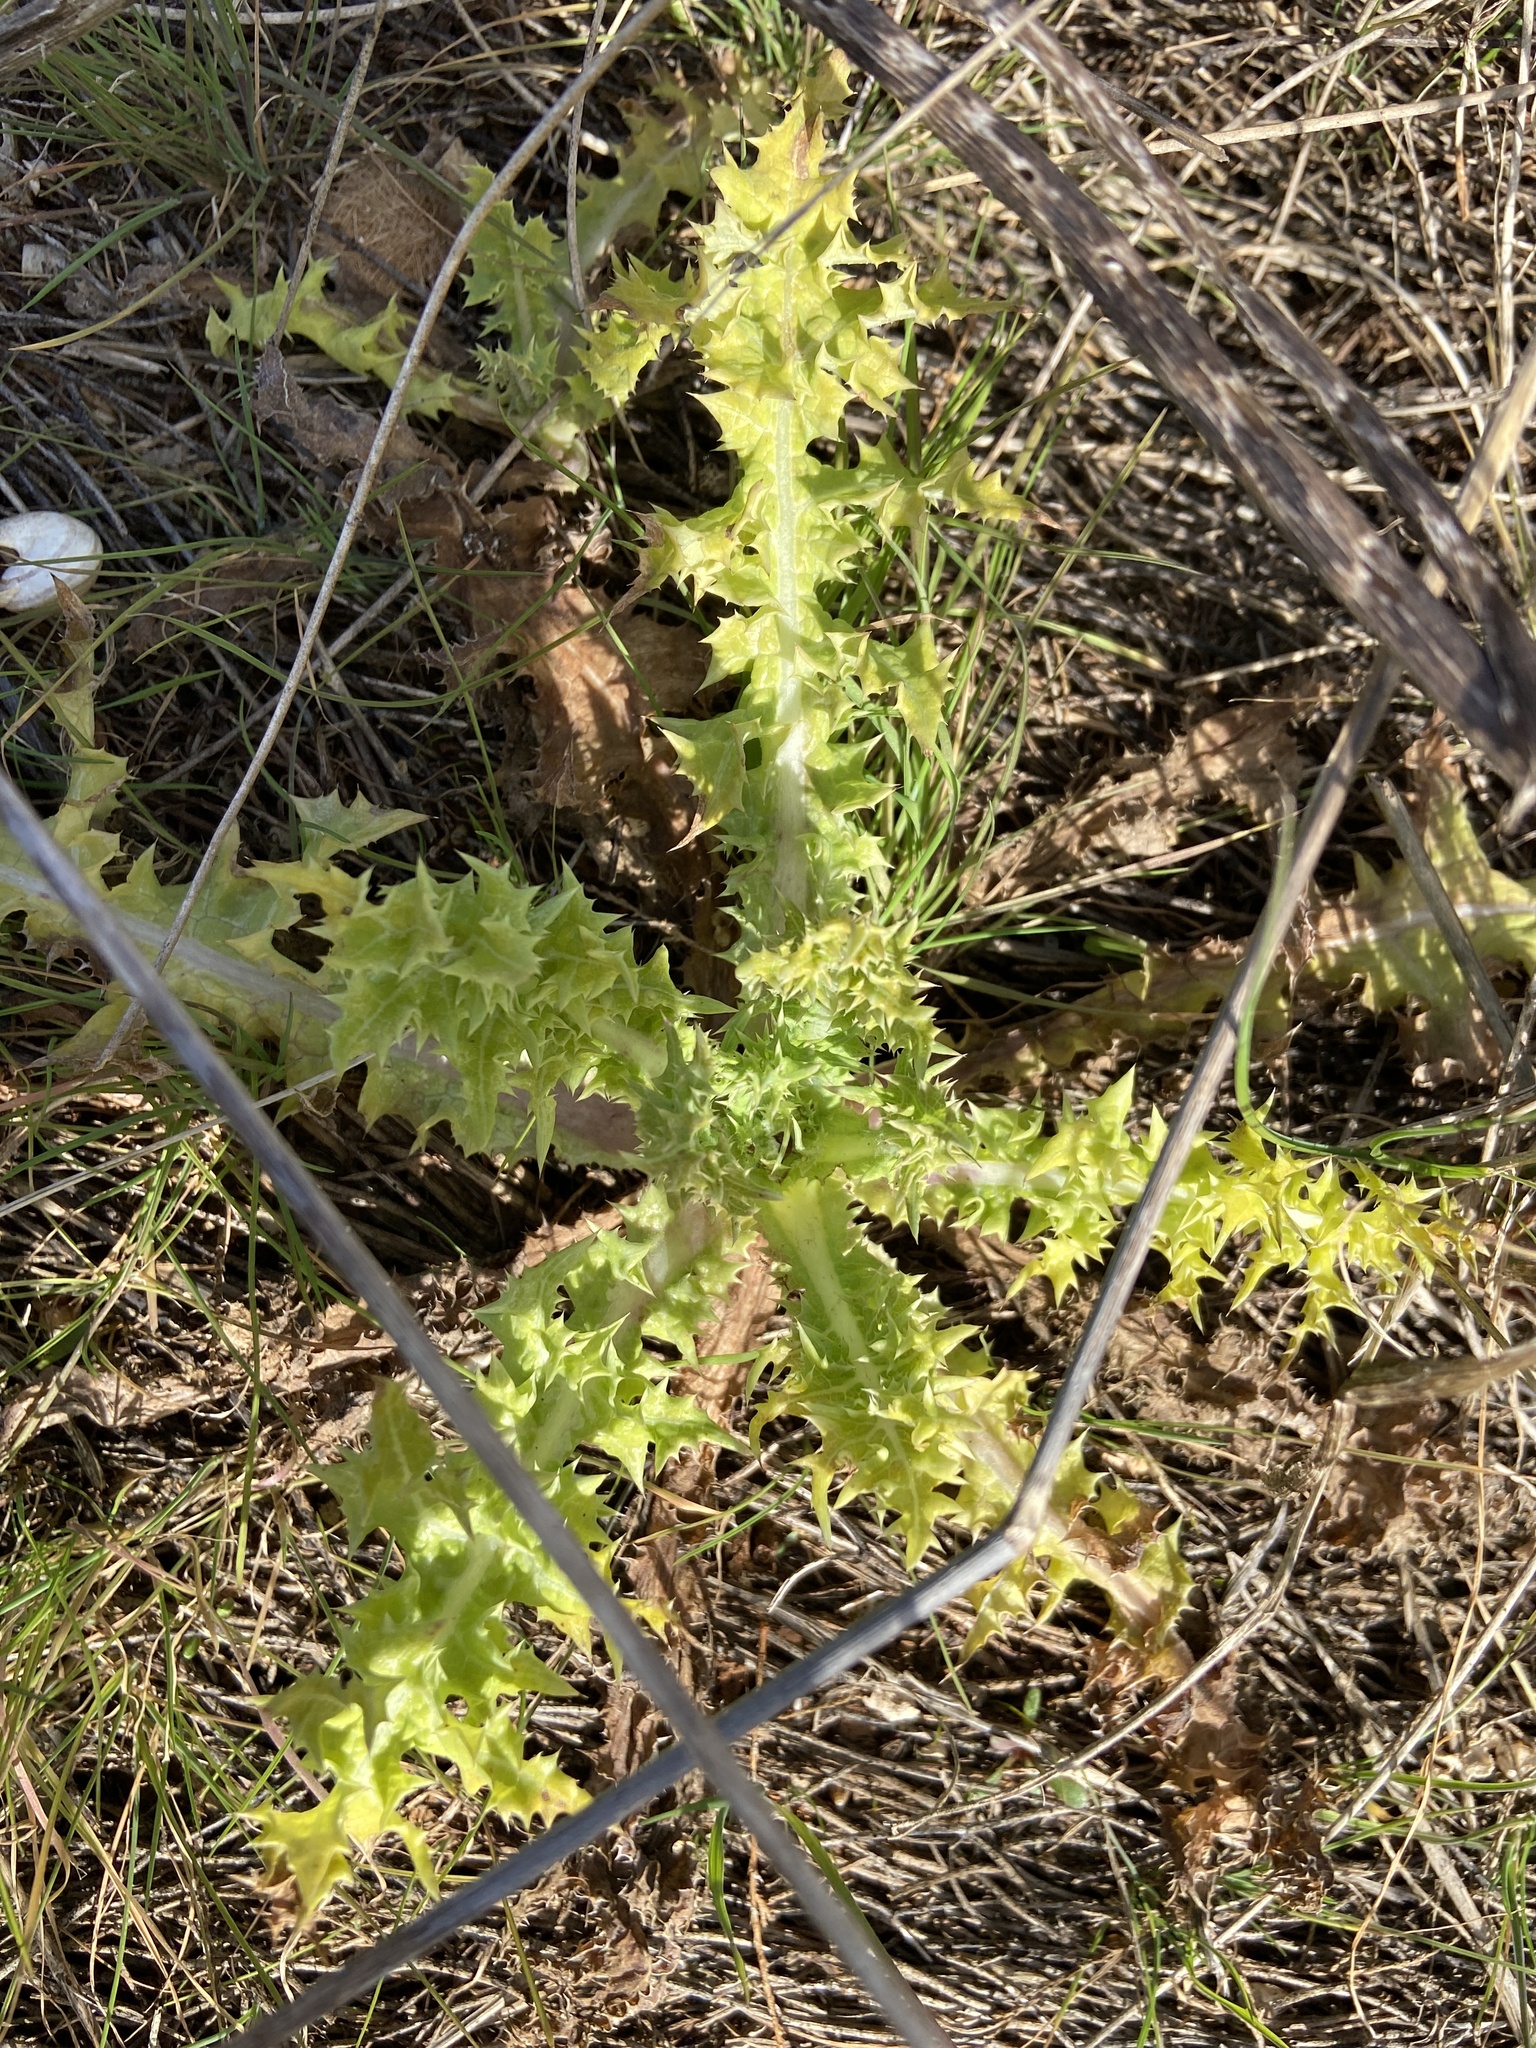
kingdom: Plantae
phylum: Tracheophyta
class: Magnoliopsida
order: Asterales
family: Asteraceae
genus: Sonchus
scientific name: Sonchus asper
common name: Prickly sow-thistle
